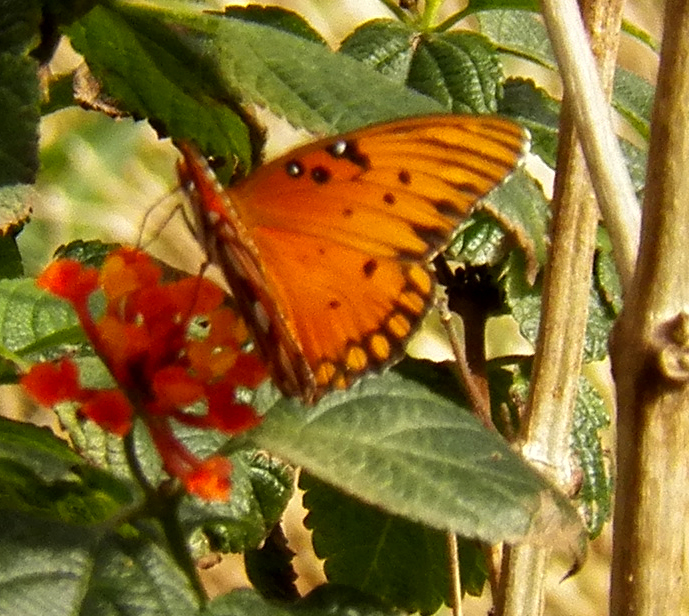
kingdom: Animalia
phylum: Arthropoda
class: Insecta
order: Lepidoptera
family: Nymphalidae
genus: Dione
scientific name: Dione vanillae
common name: Gulf fritillary
